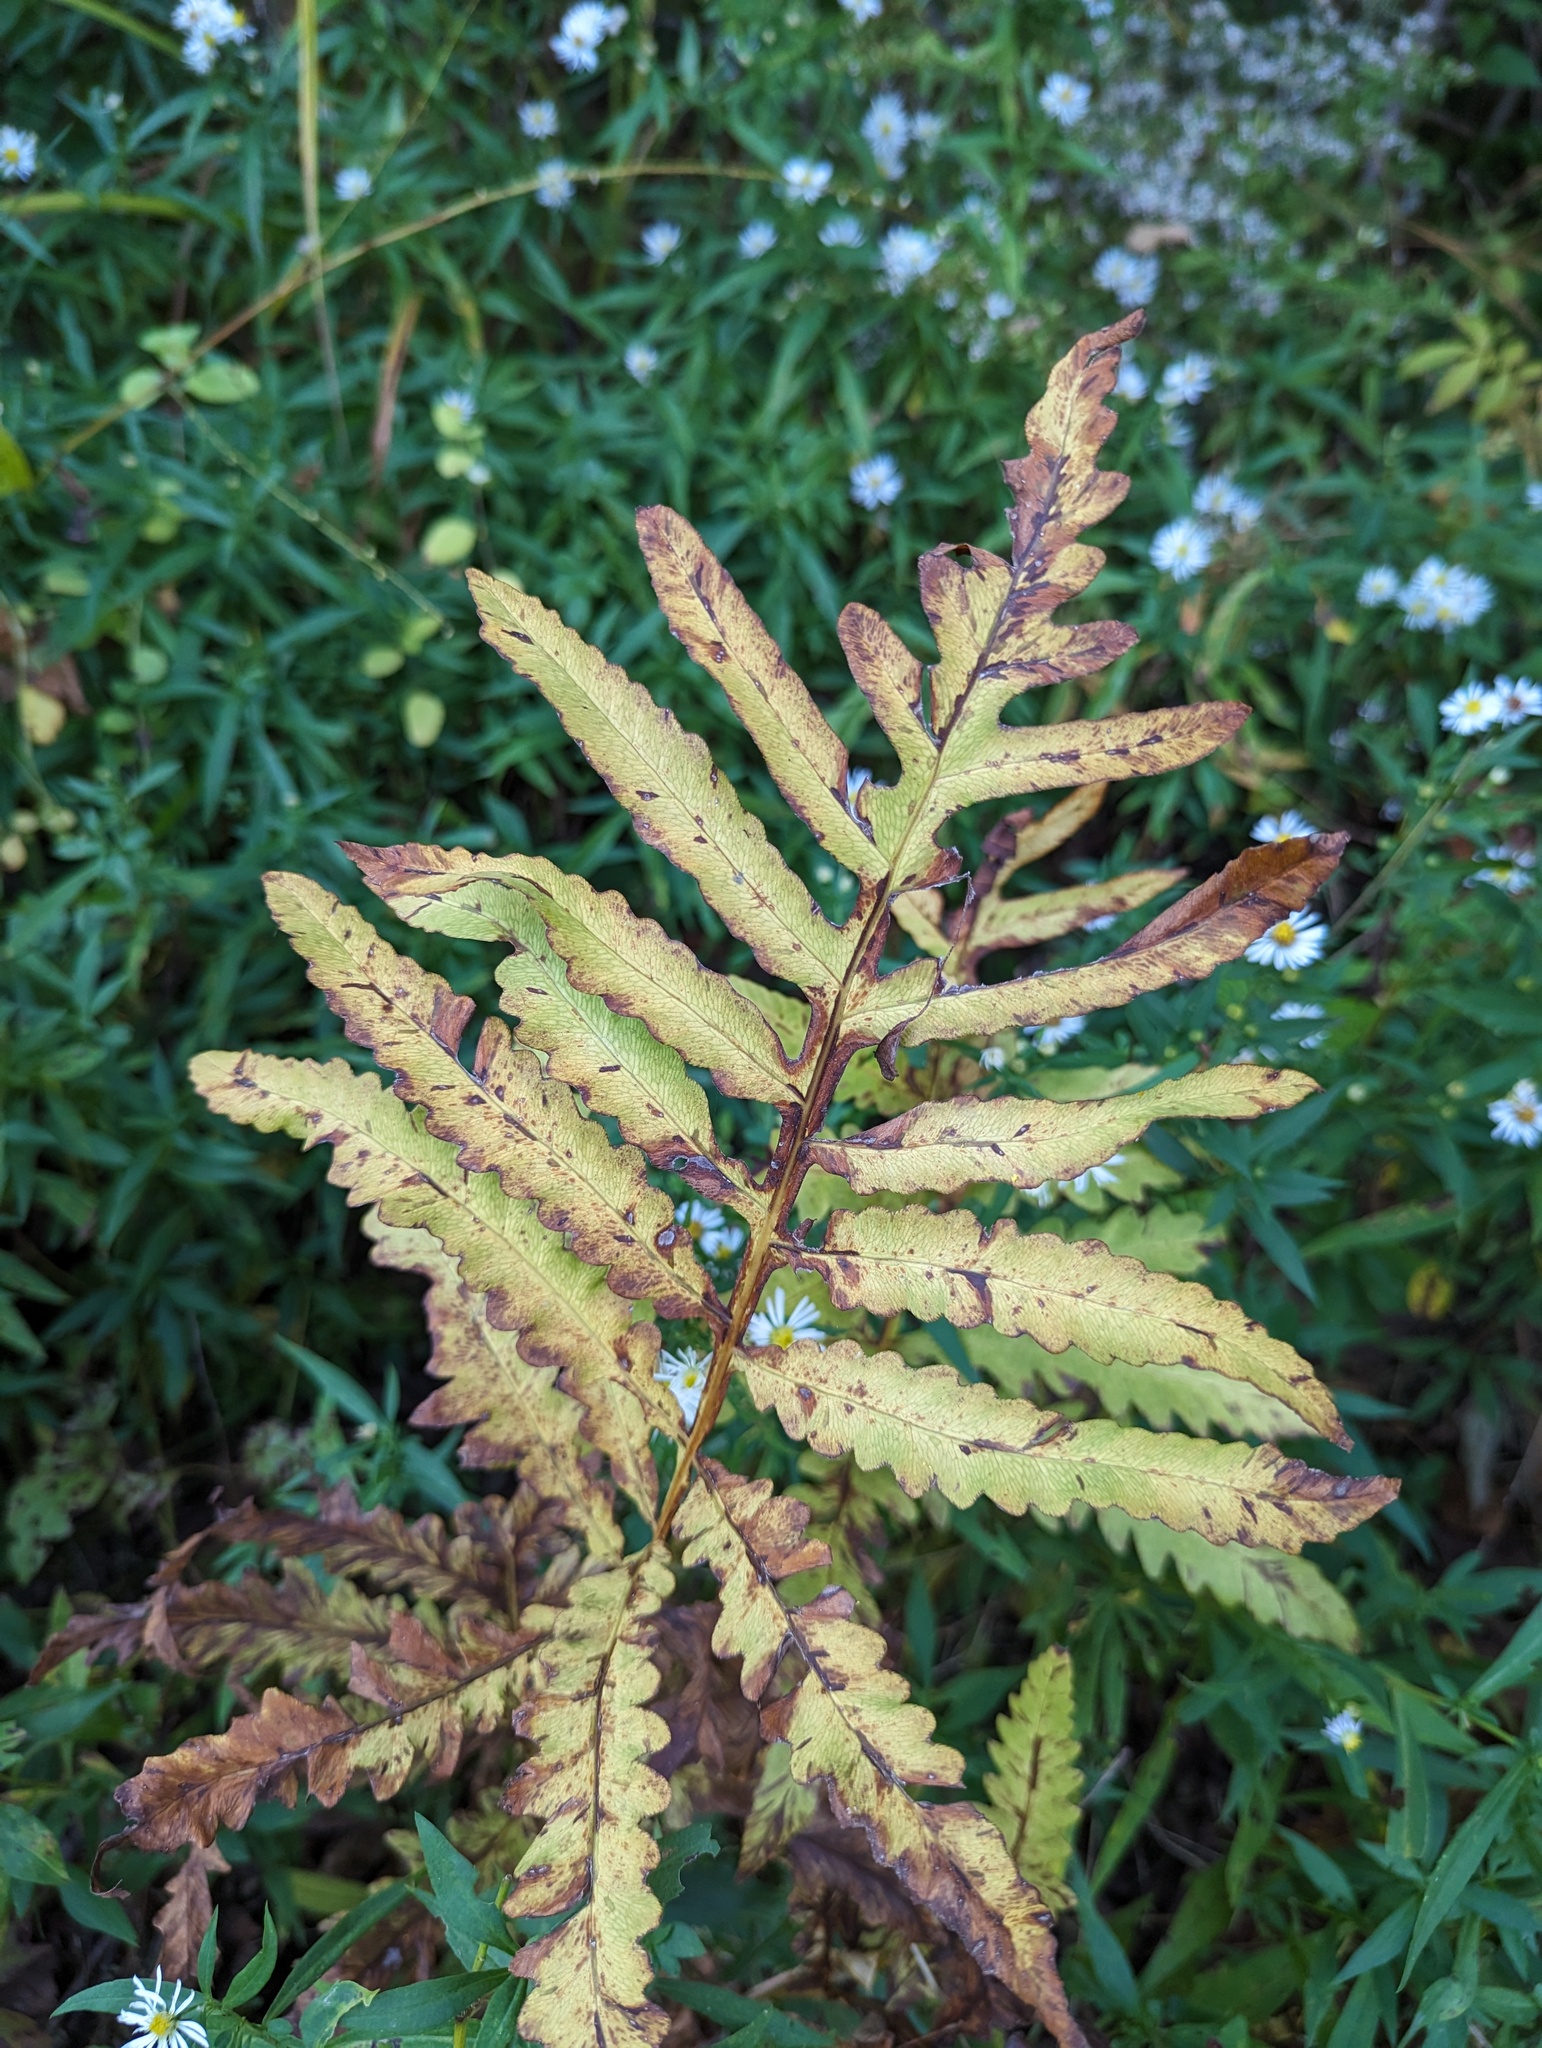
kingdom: Plantae
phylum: Tracheophyta
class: Polypodiopsida
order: Polypodiales
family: Onocleaceae
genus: Onoclea
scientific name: Onoclea sensibilis
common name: Sensitive fern
